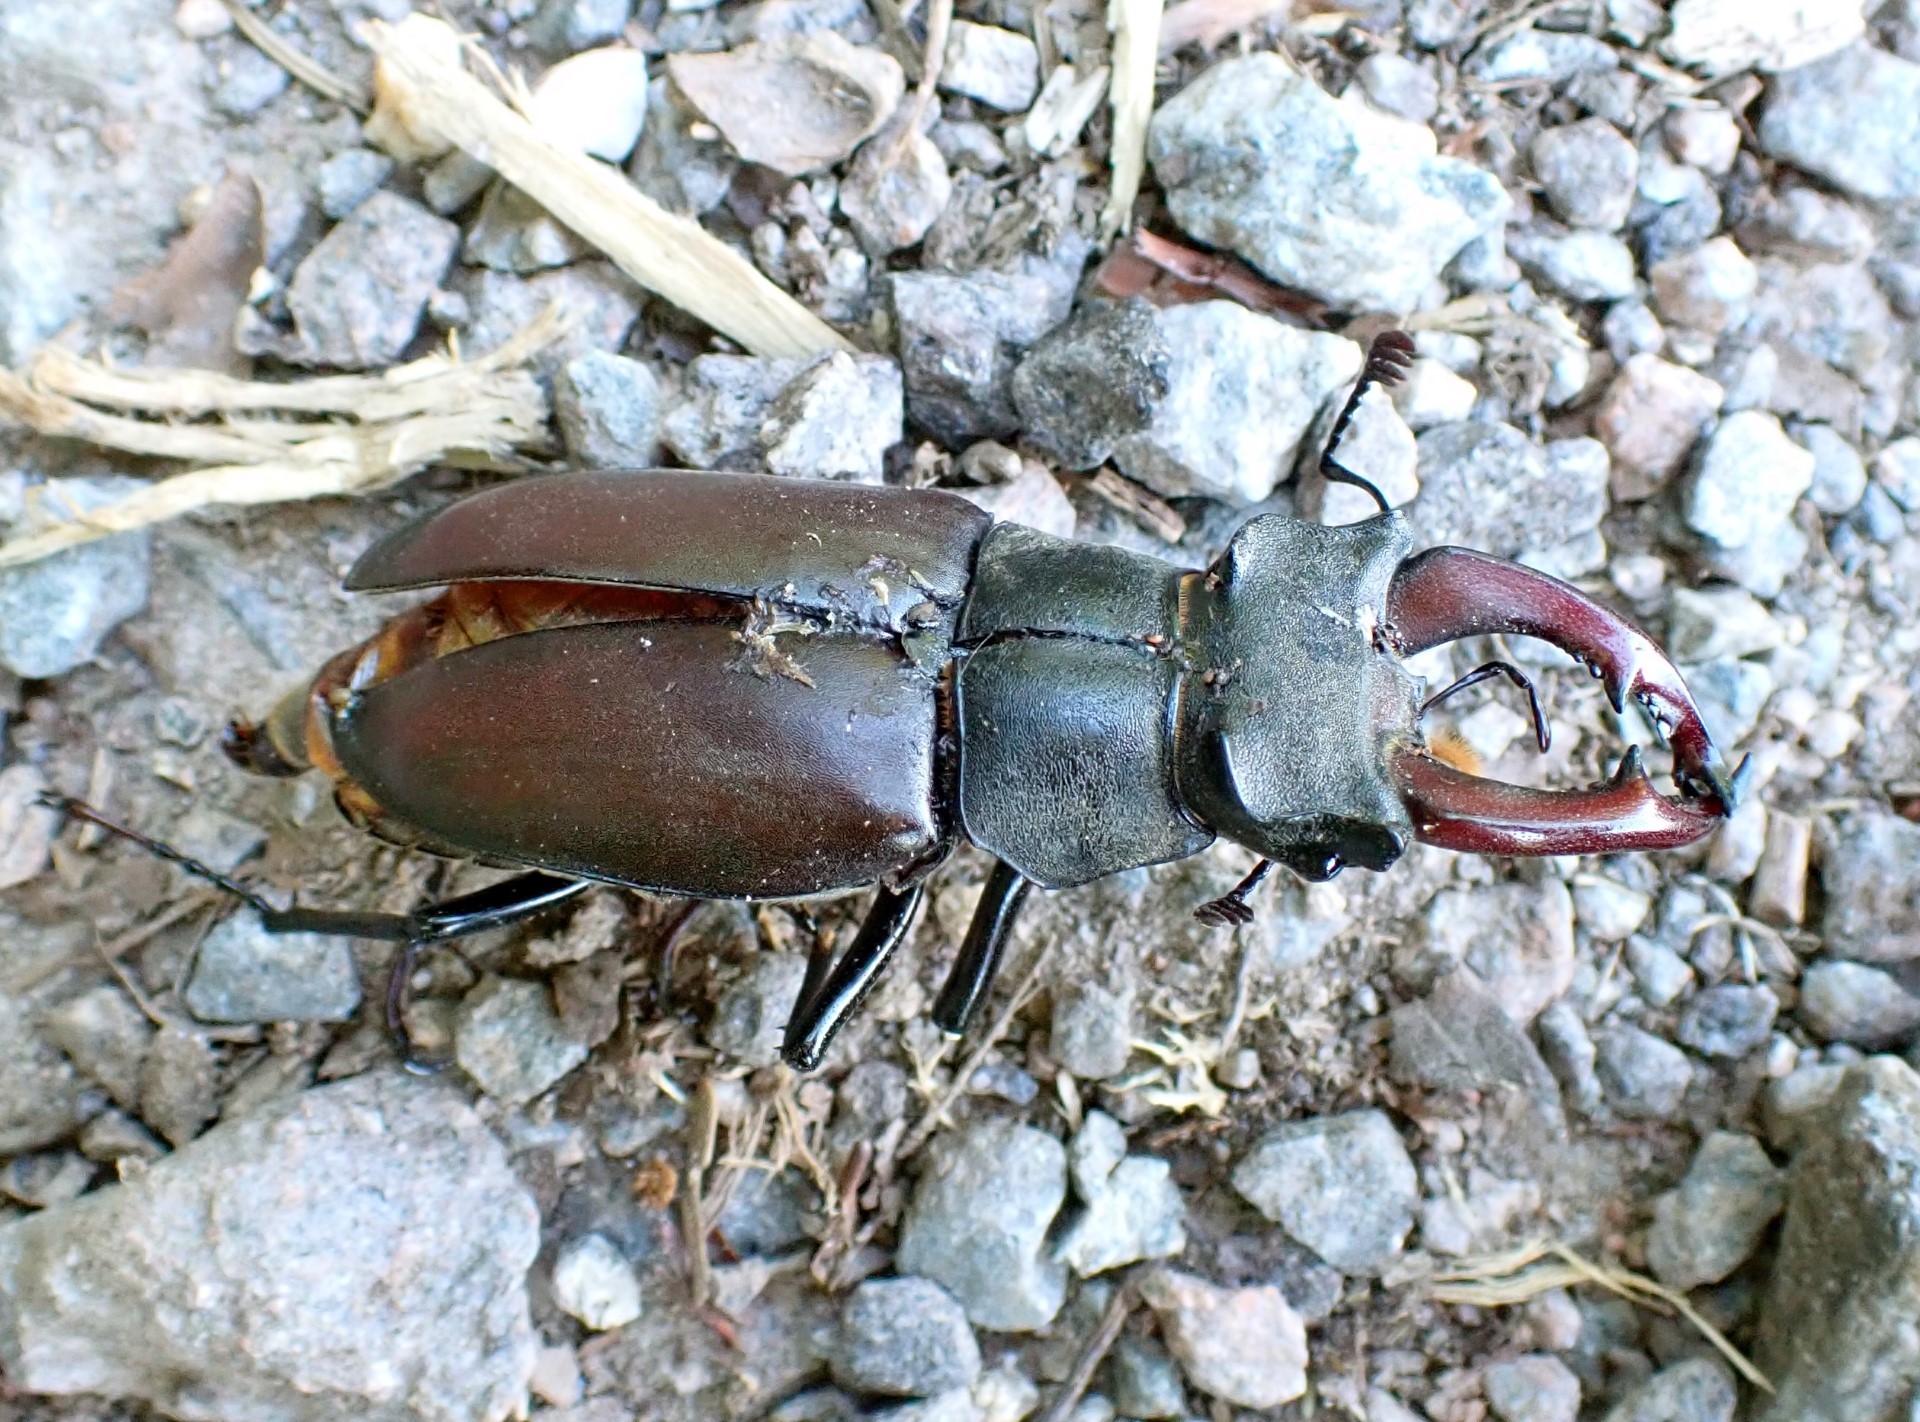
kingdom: Animalia
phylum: Arthropoda
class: Insecta
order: Coleoptera
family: Lucanidae
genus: Lucanus
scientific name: Lucanus cervus
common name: Stag beetle
